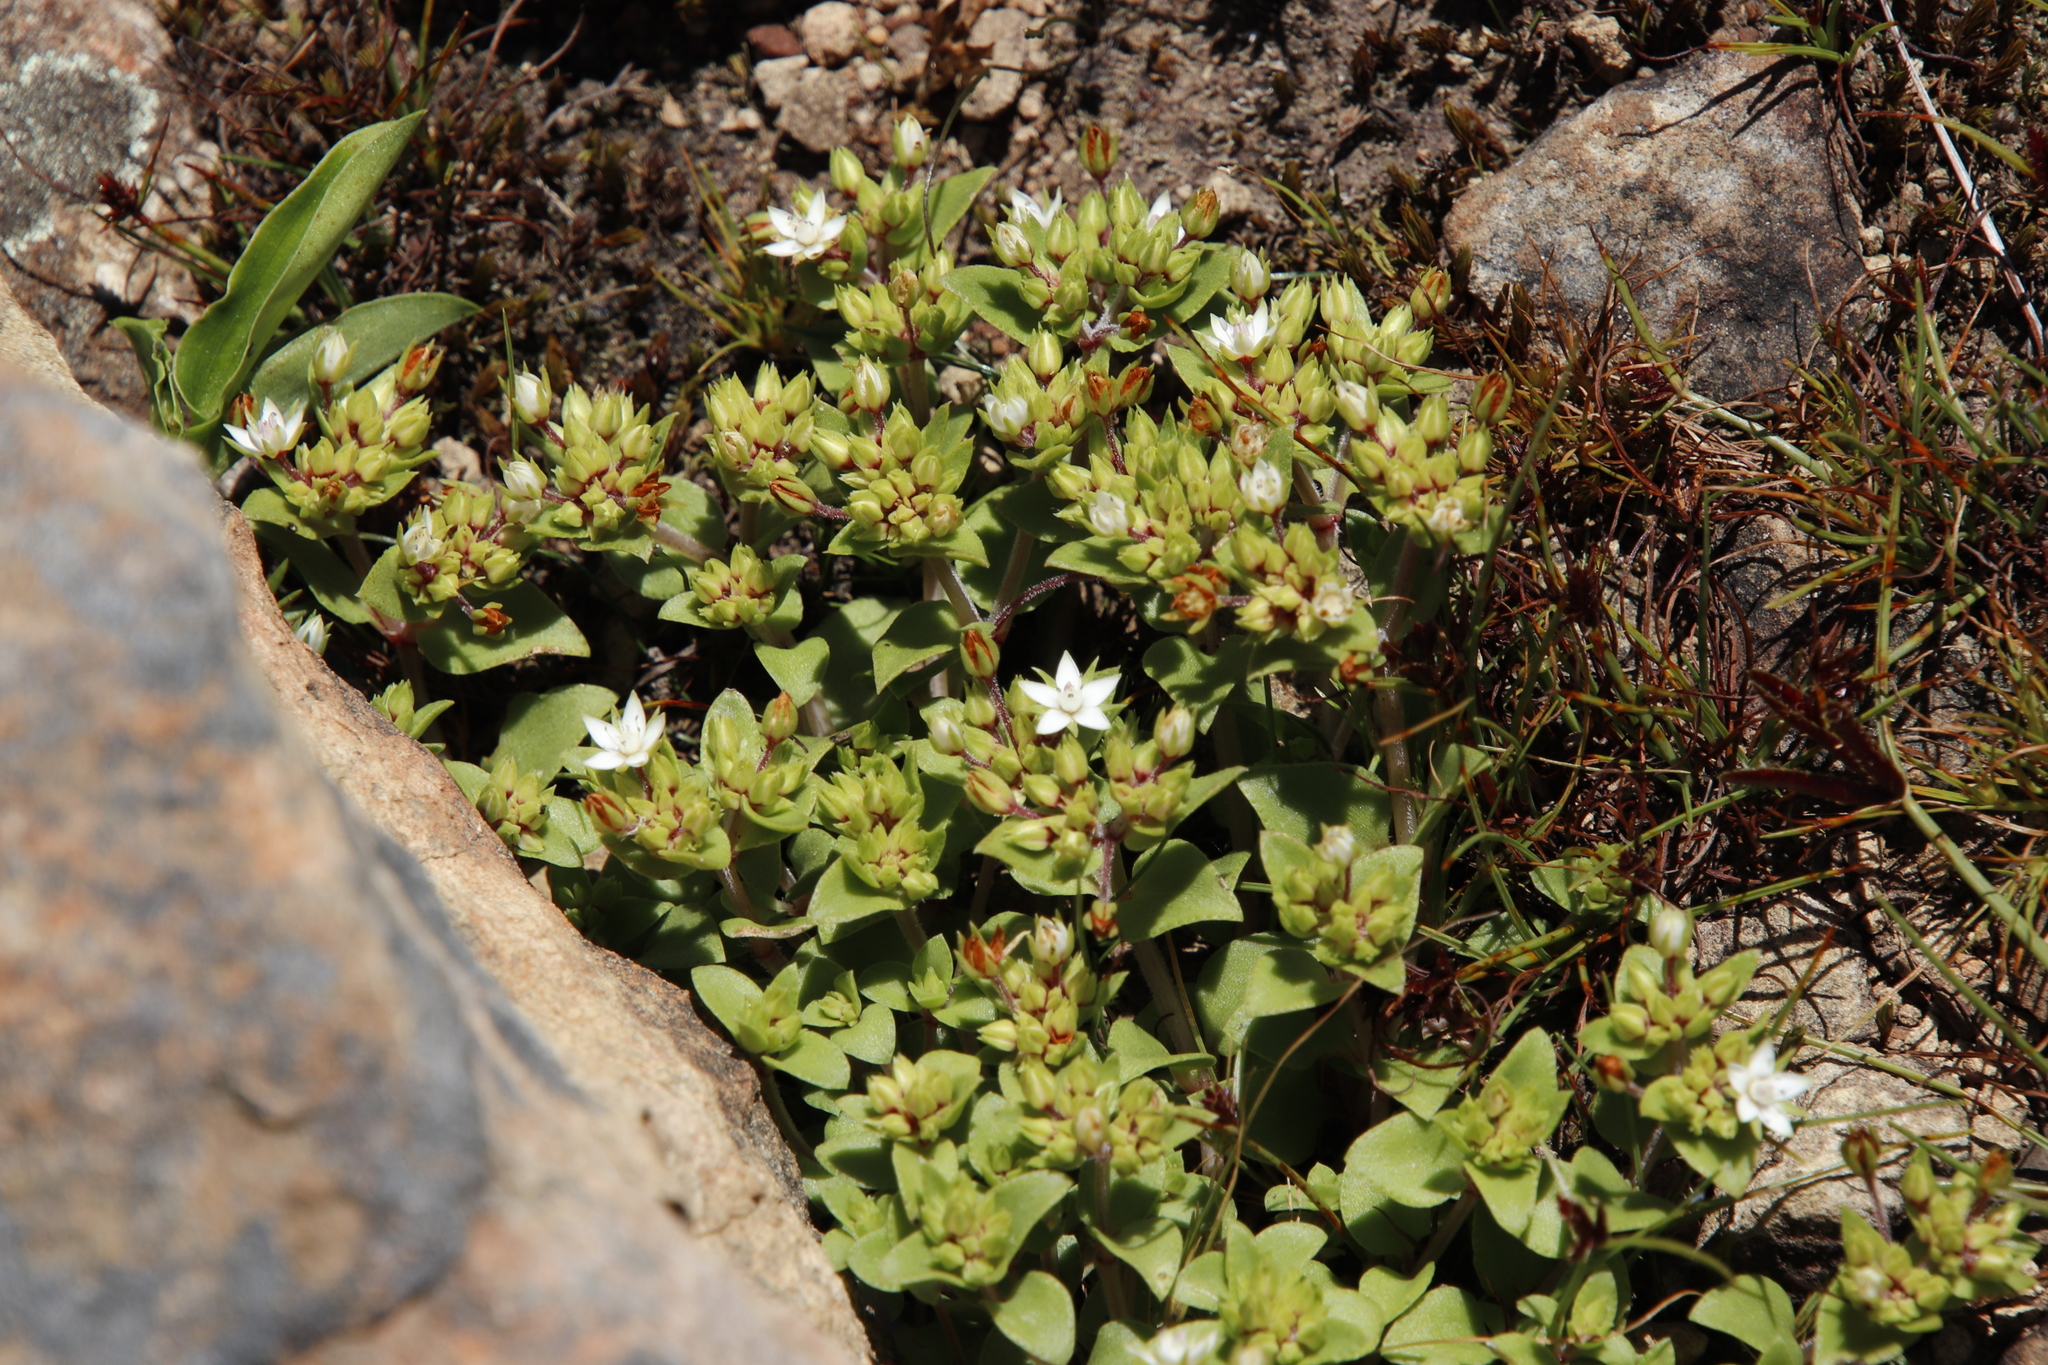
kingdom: Plantae
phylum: Tracheophyta
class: Magnoliopsida
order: Saxifragales
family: Crassulaceae
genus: Crassula
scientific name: Crassula pellucida
